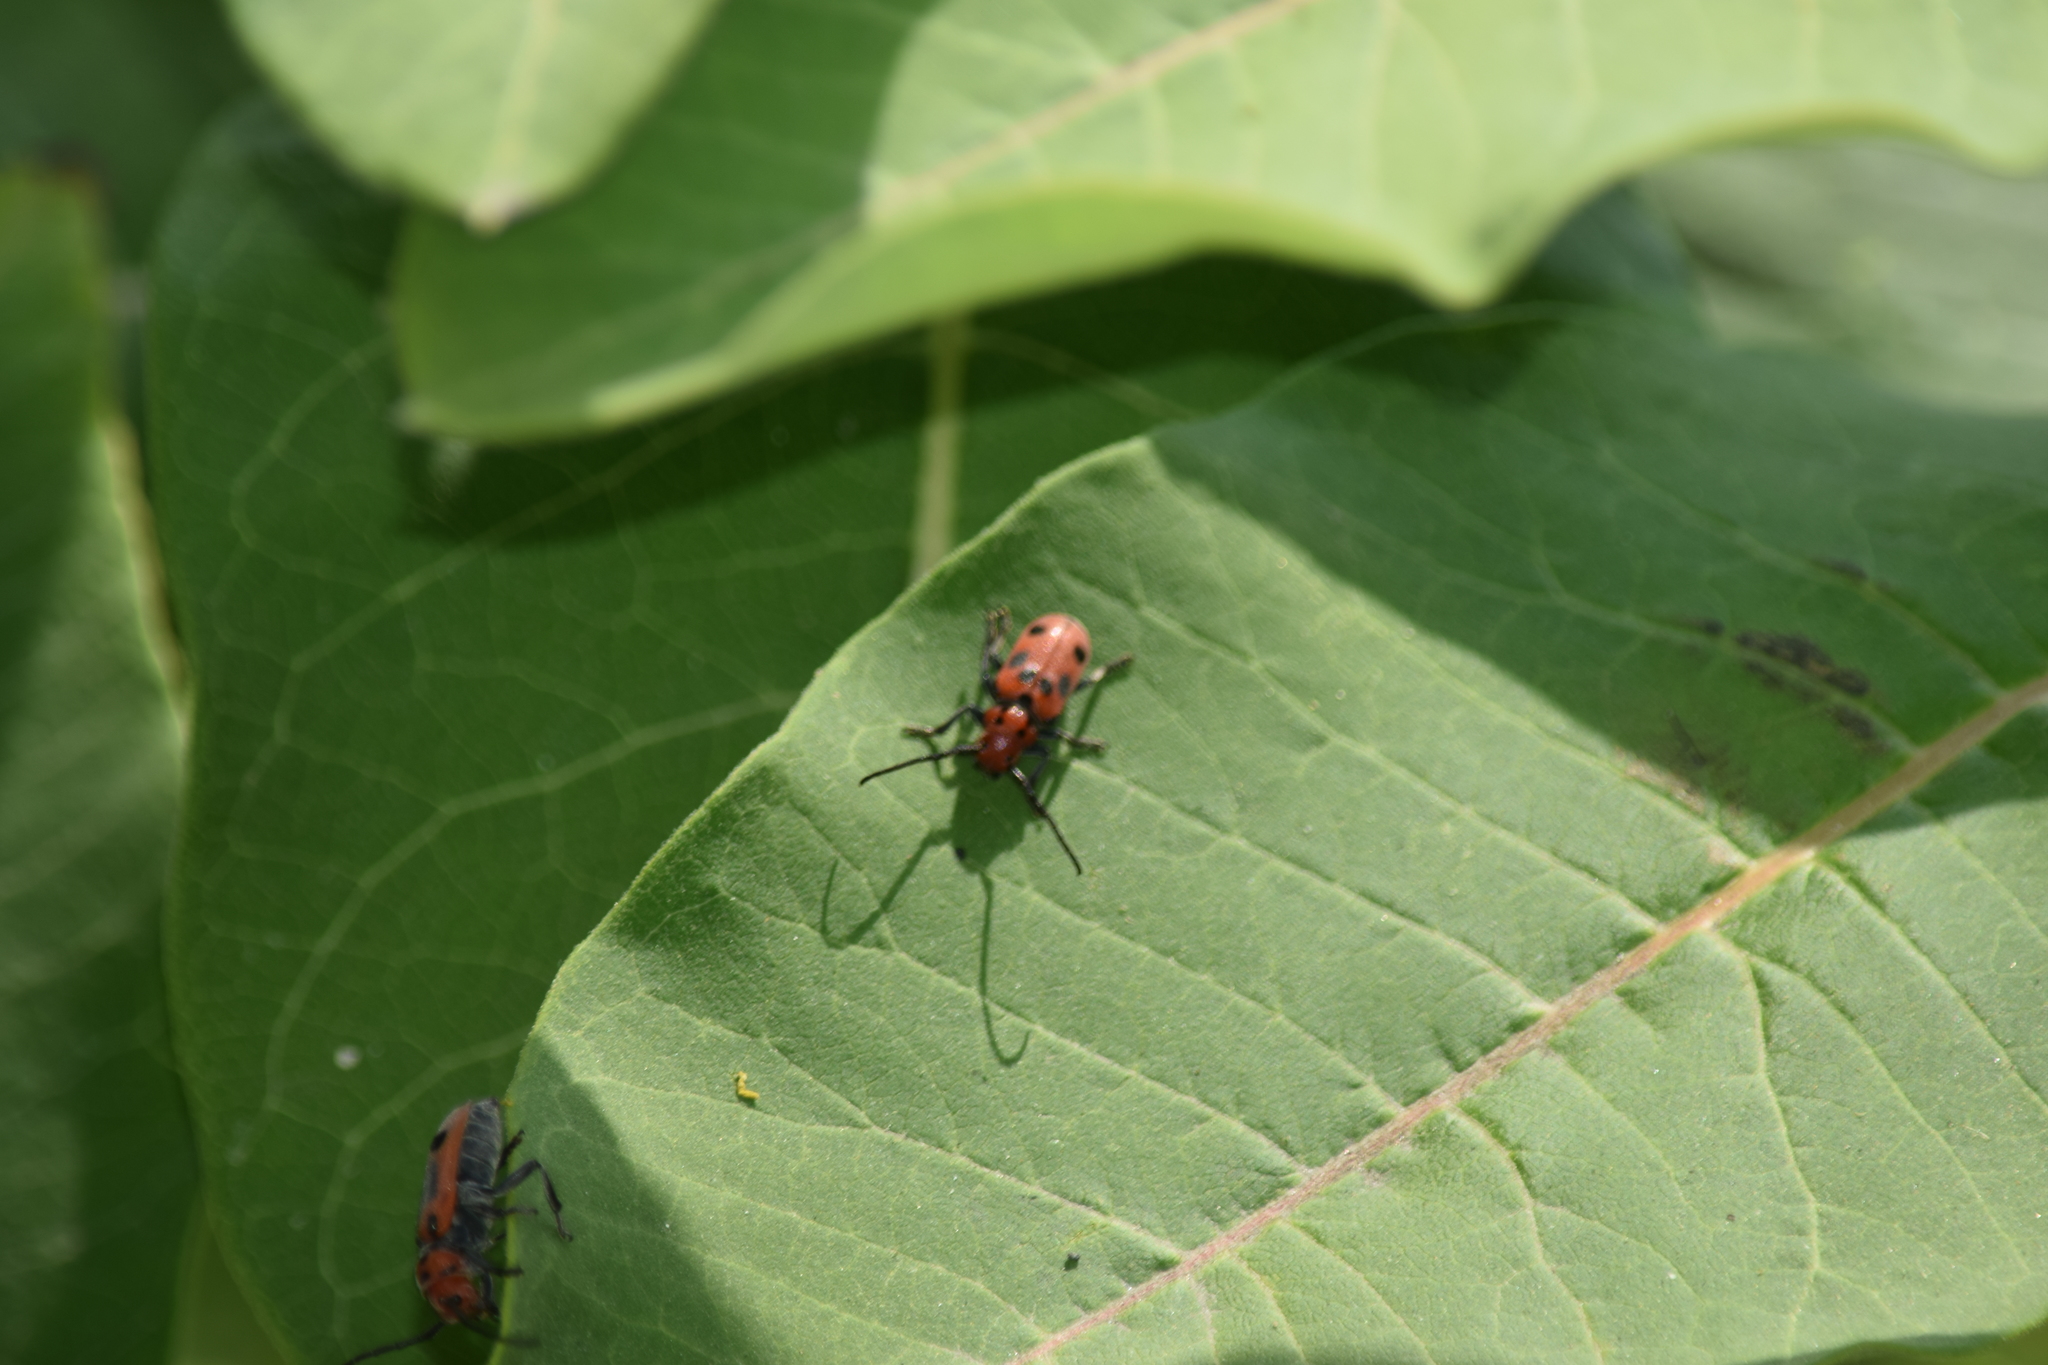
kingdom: Animalia
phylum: Arthropoda
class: Insecta
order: Coleoptera
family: Cerambycidae
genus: Tetraopes
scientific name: Tetraopes tetrophthalmus
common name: Red milkweed beetle
